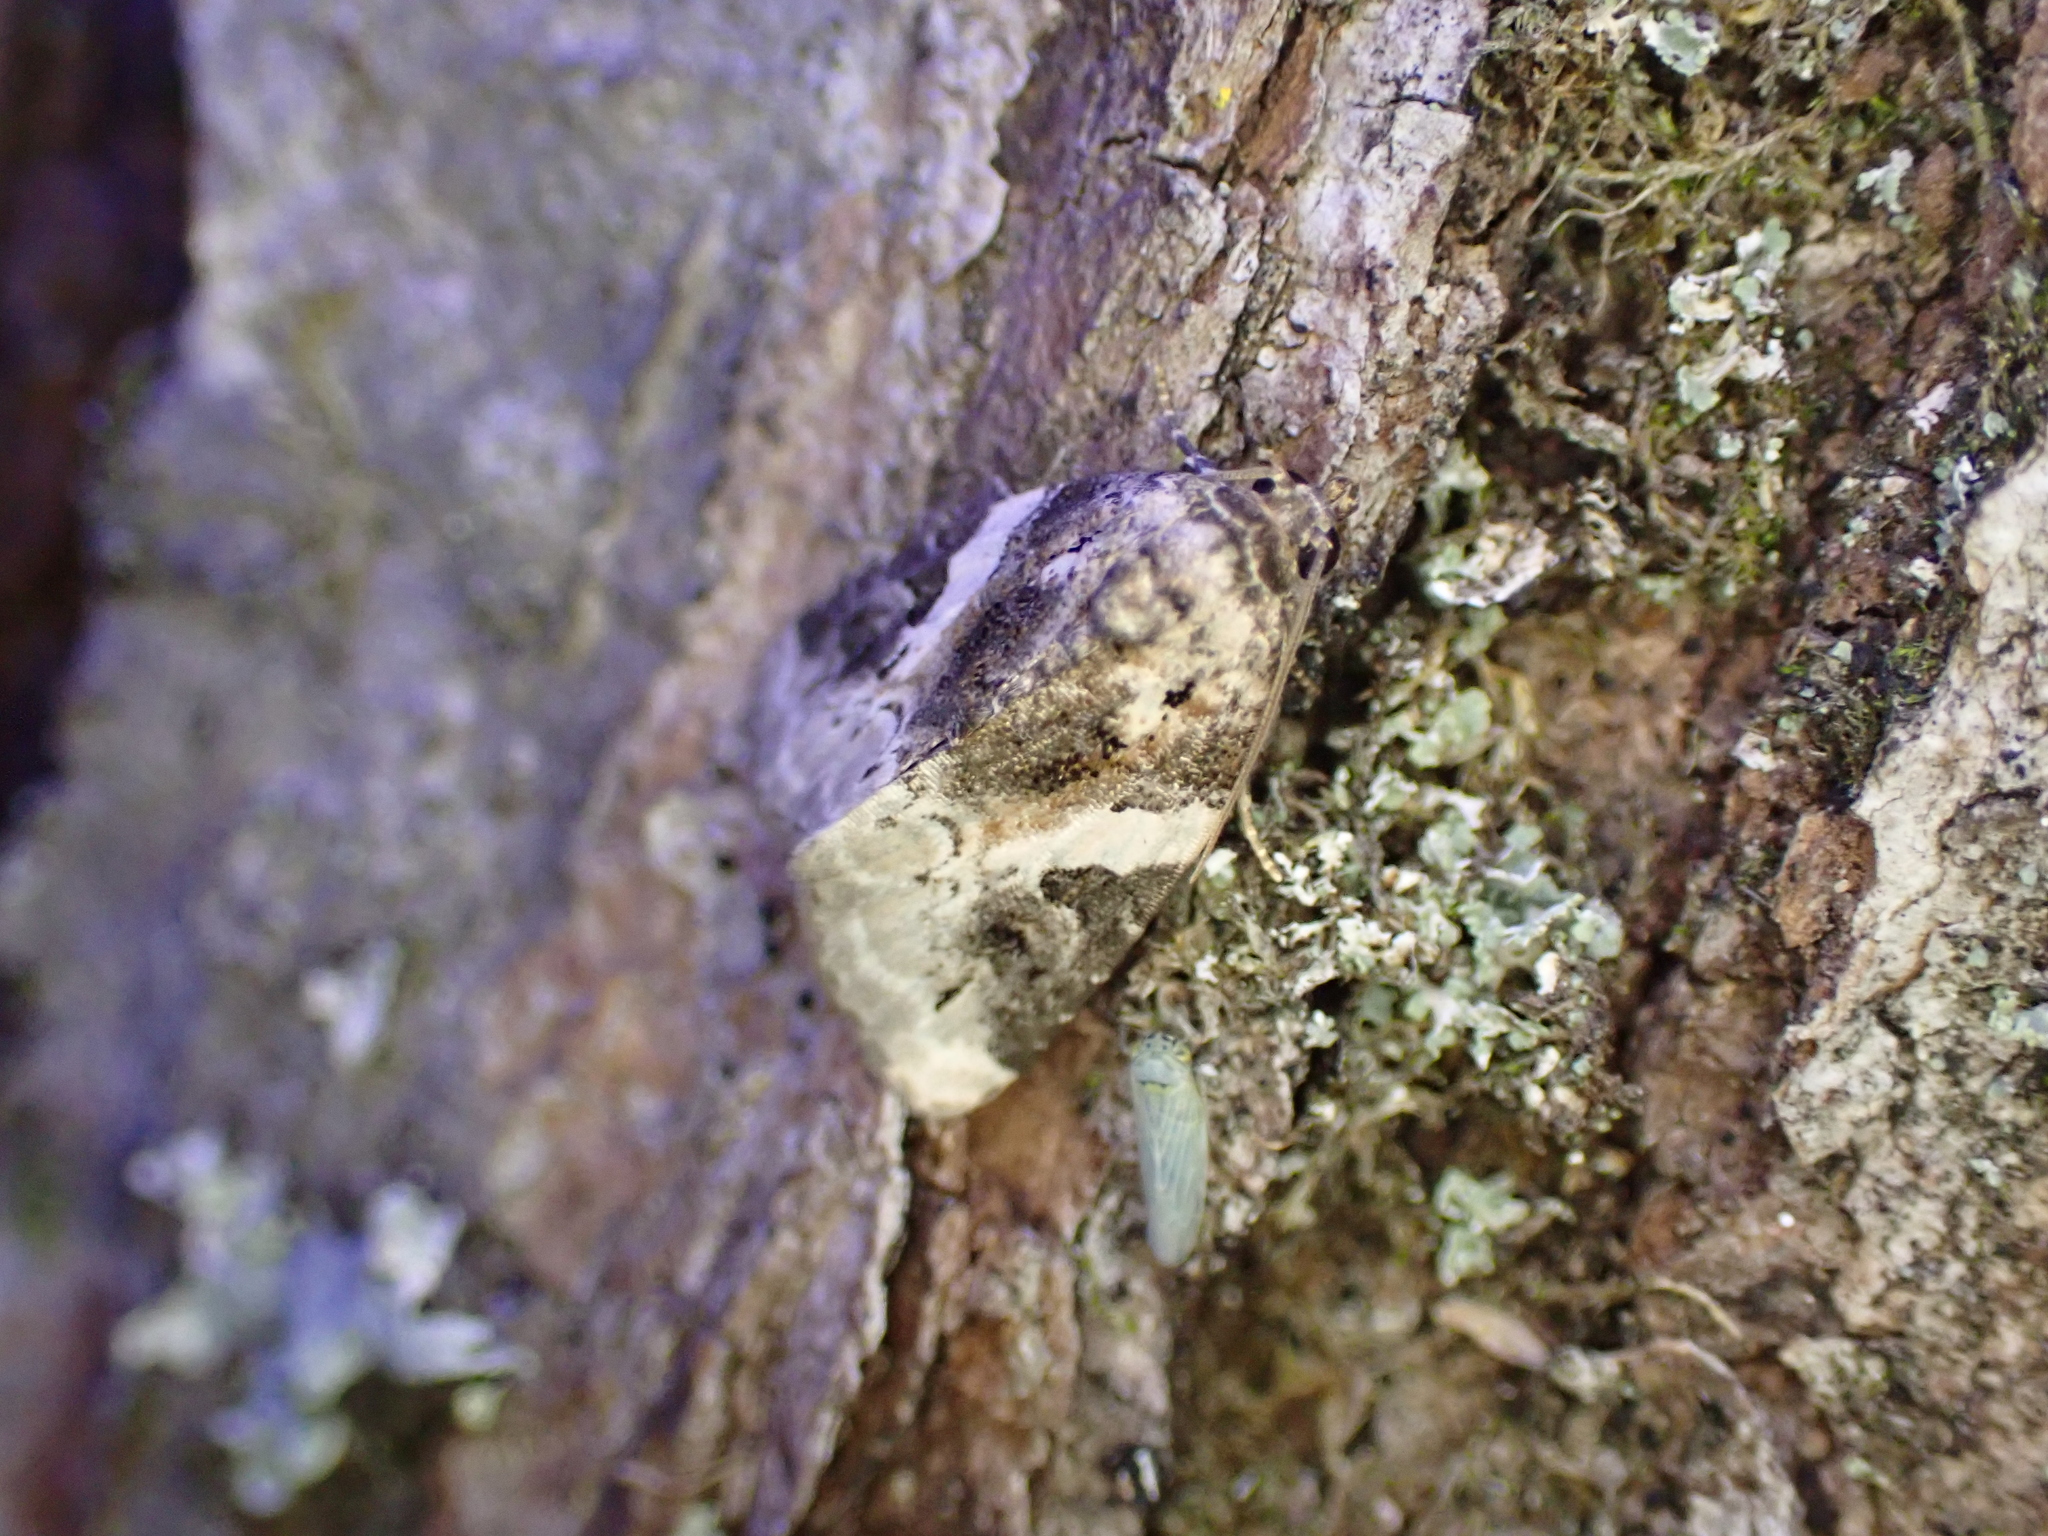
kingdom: Animalia
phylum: Arthropoda
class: Insecta
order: Lepidoptera
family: Noctuidae
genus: Pseudeustrotia
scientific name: Pseudeustrotia carneola
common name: Pink-barred lithacodia moth
